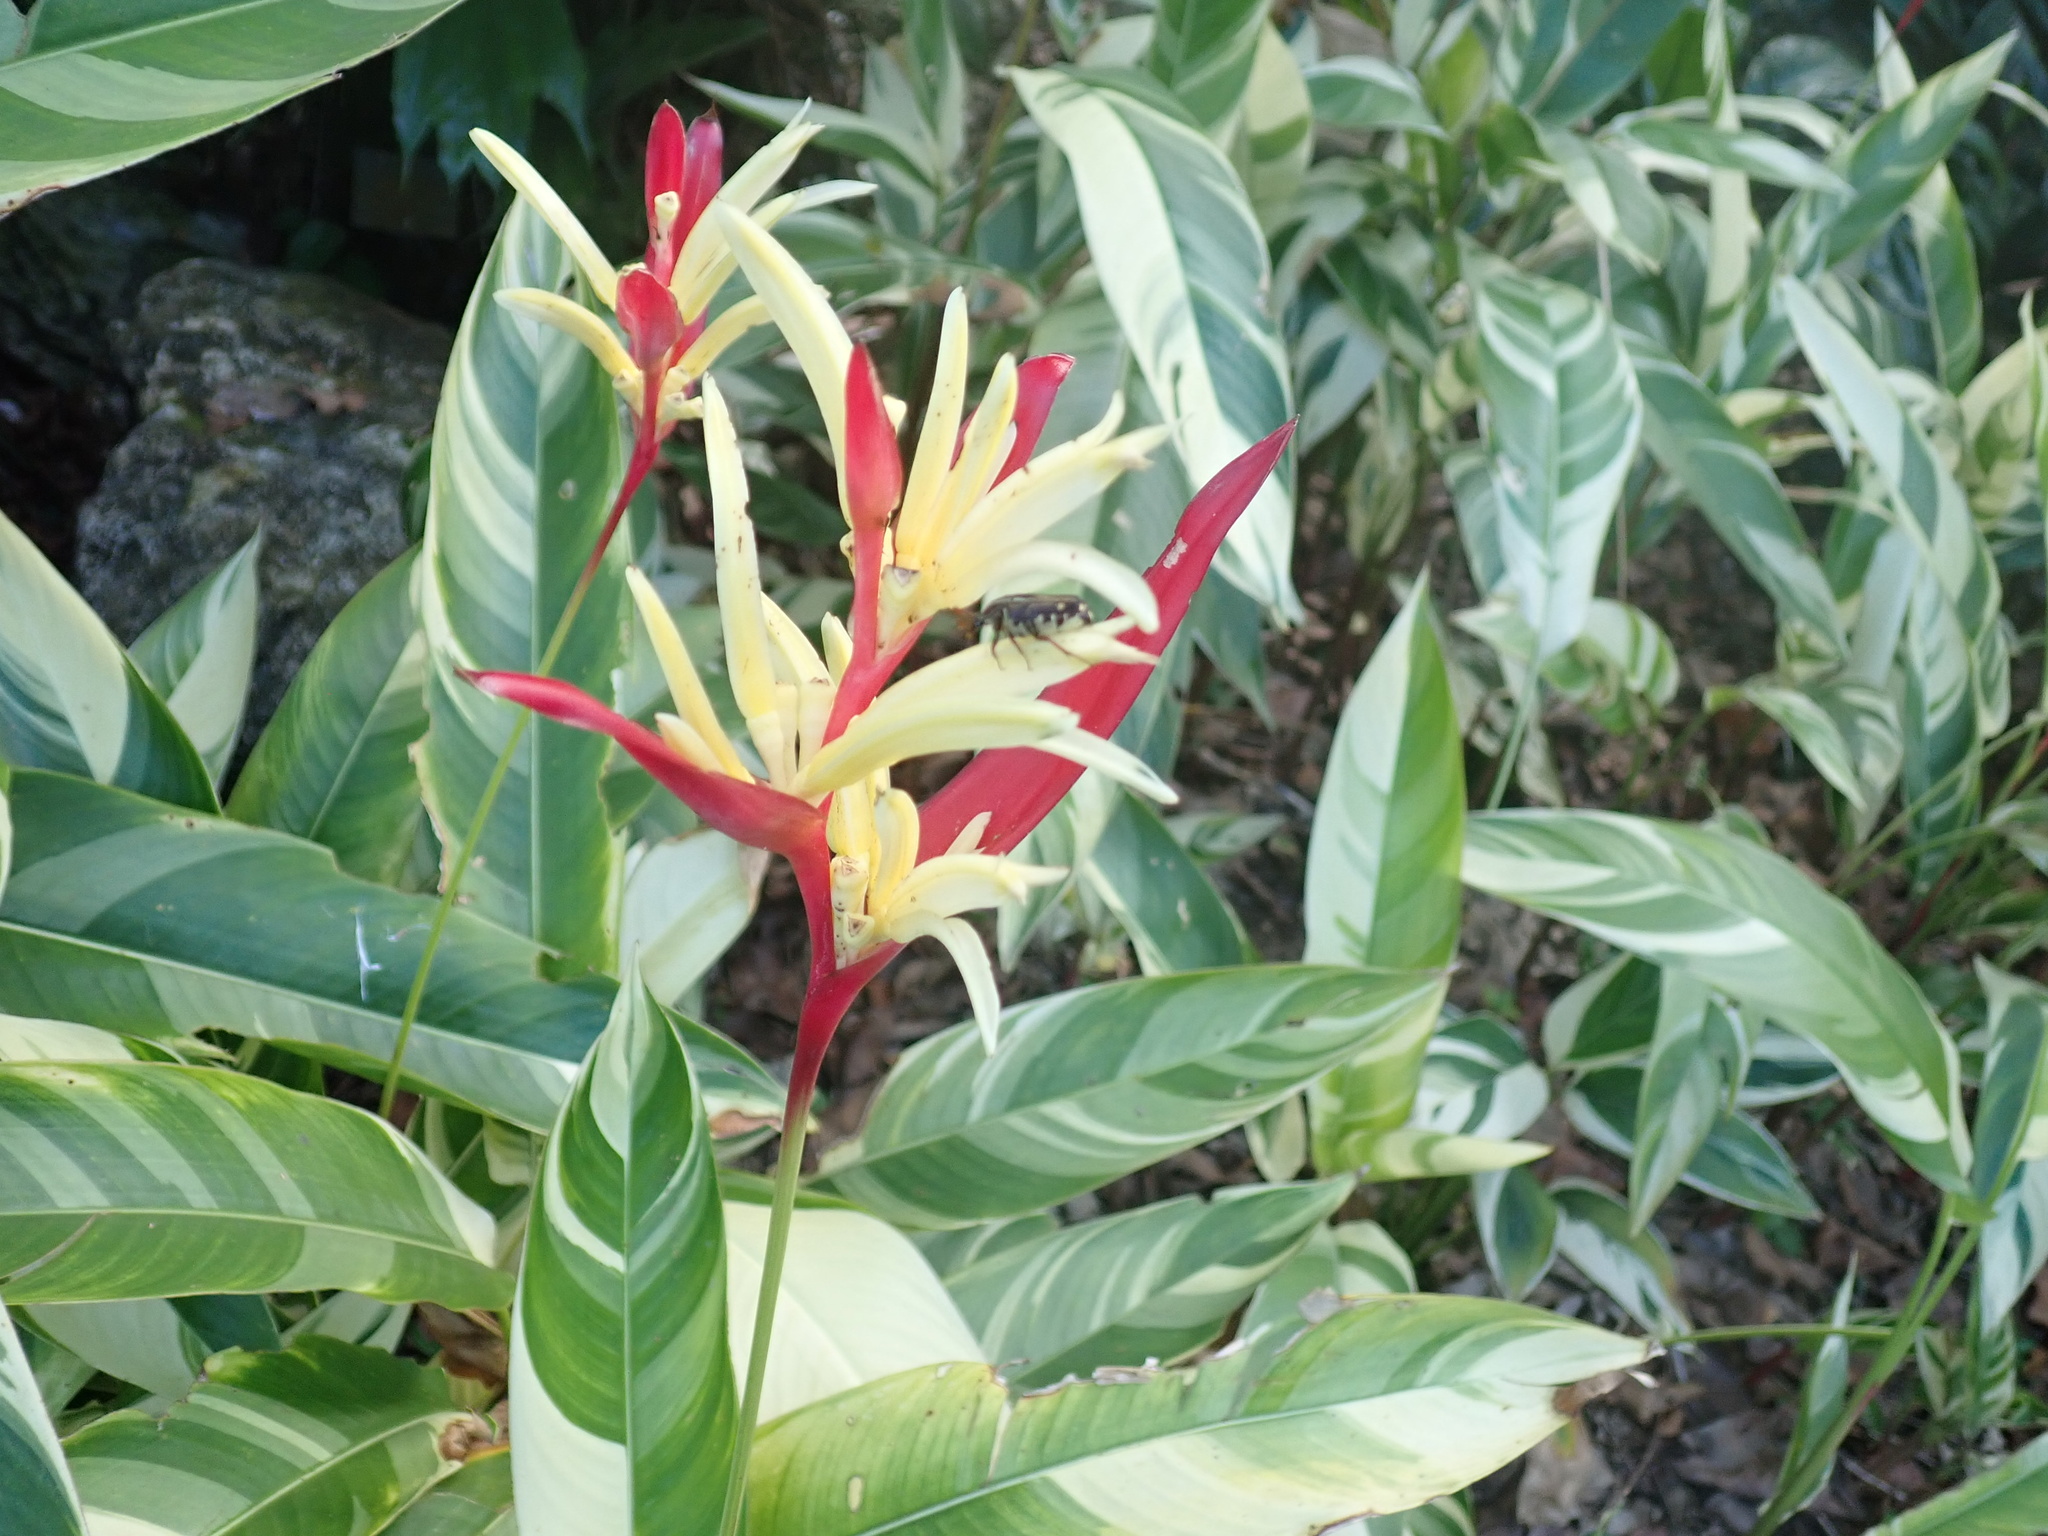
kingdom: Animalia
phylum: Arthropoda
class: Insecta
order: Coleoptera
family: Scarabaeidae
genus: Taeniodera
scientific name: Taeniodera monacha
